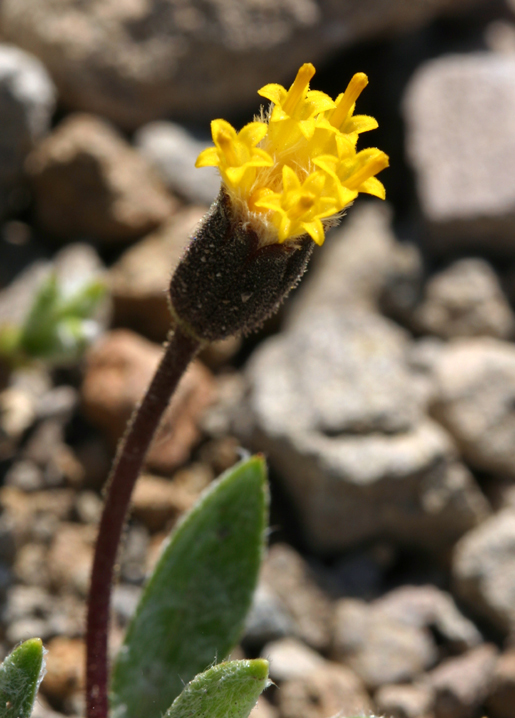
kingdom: Plantae
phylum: Tracheophyta
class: Magnoliopsida
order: Asterales
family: Asteraceae
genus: Raillardella
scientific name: Raillardella argentea
